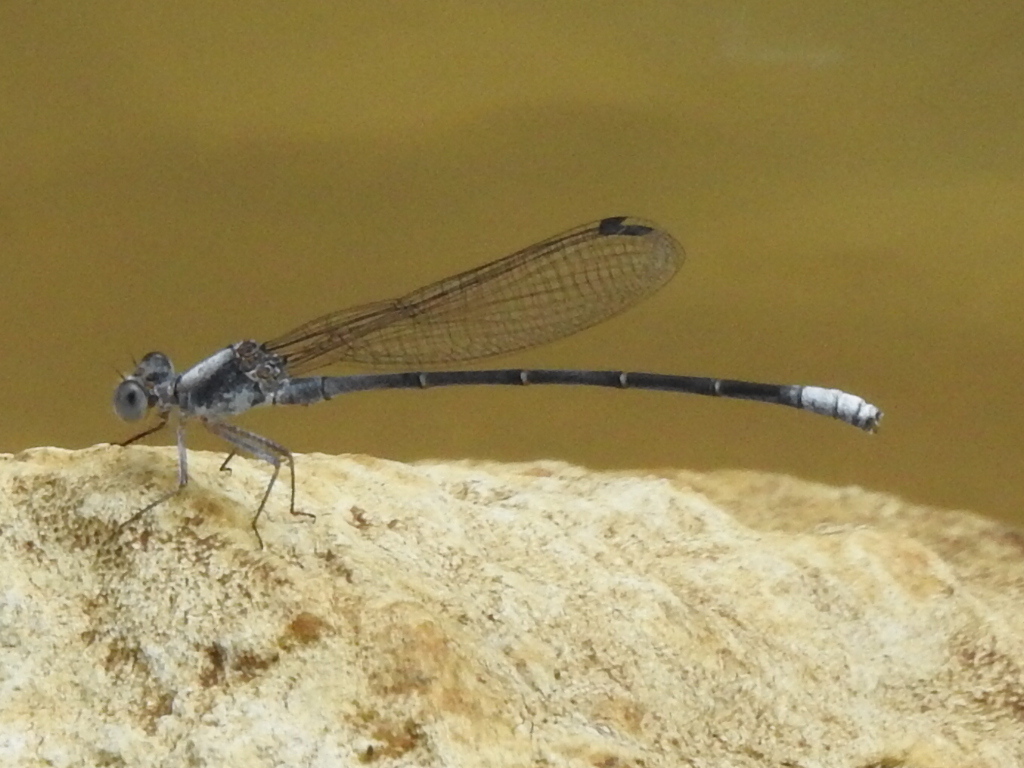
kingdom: Animalia
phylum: Arthropoda
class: Insecta
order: Odonata
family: Coenagrionidae
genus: Argia
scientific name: Argia moesta
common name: Powdered dancer
